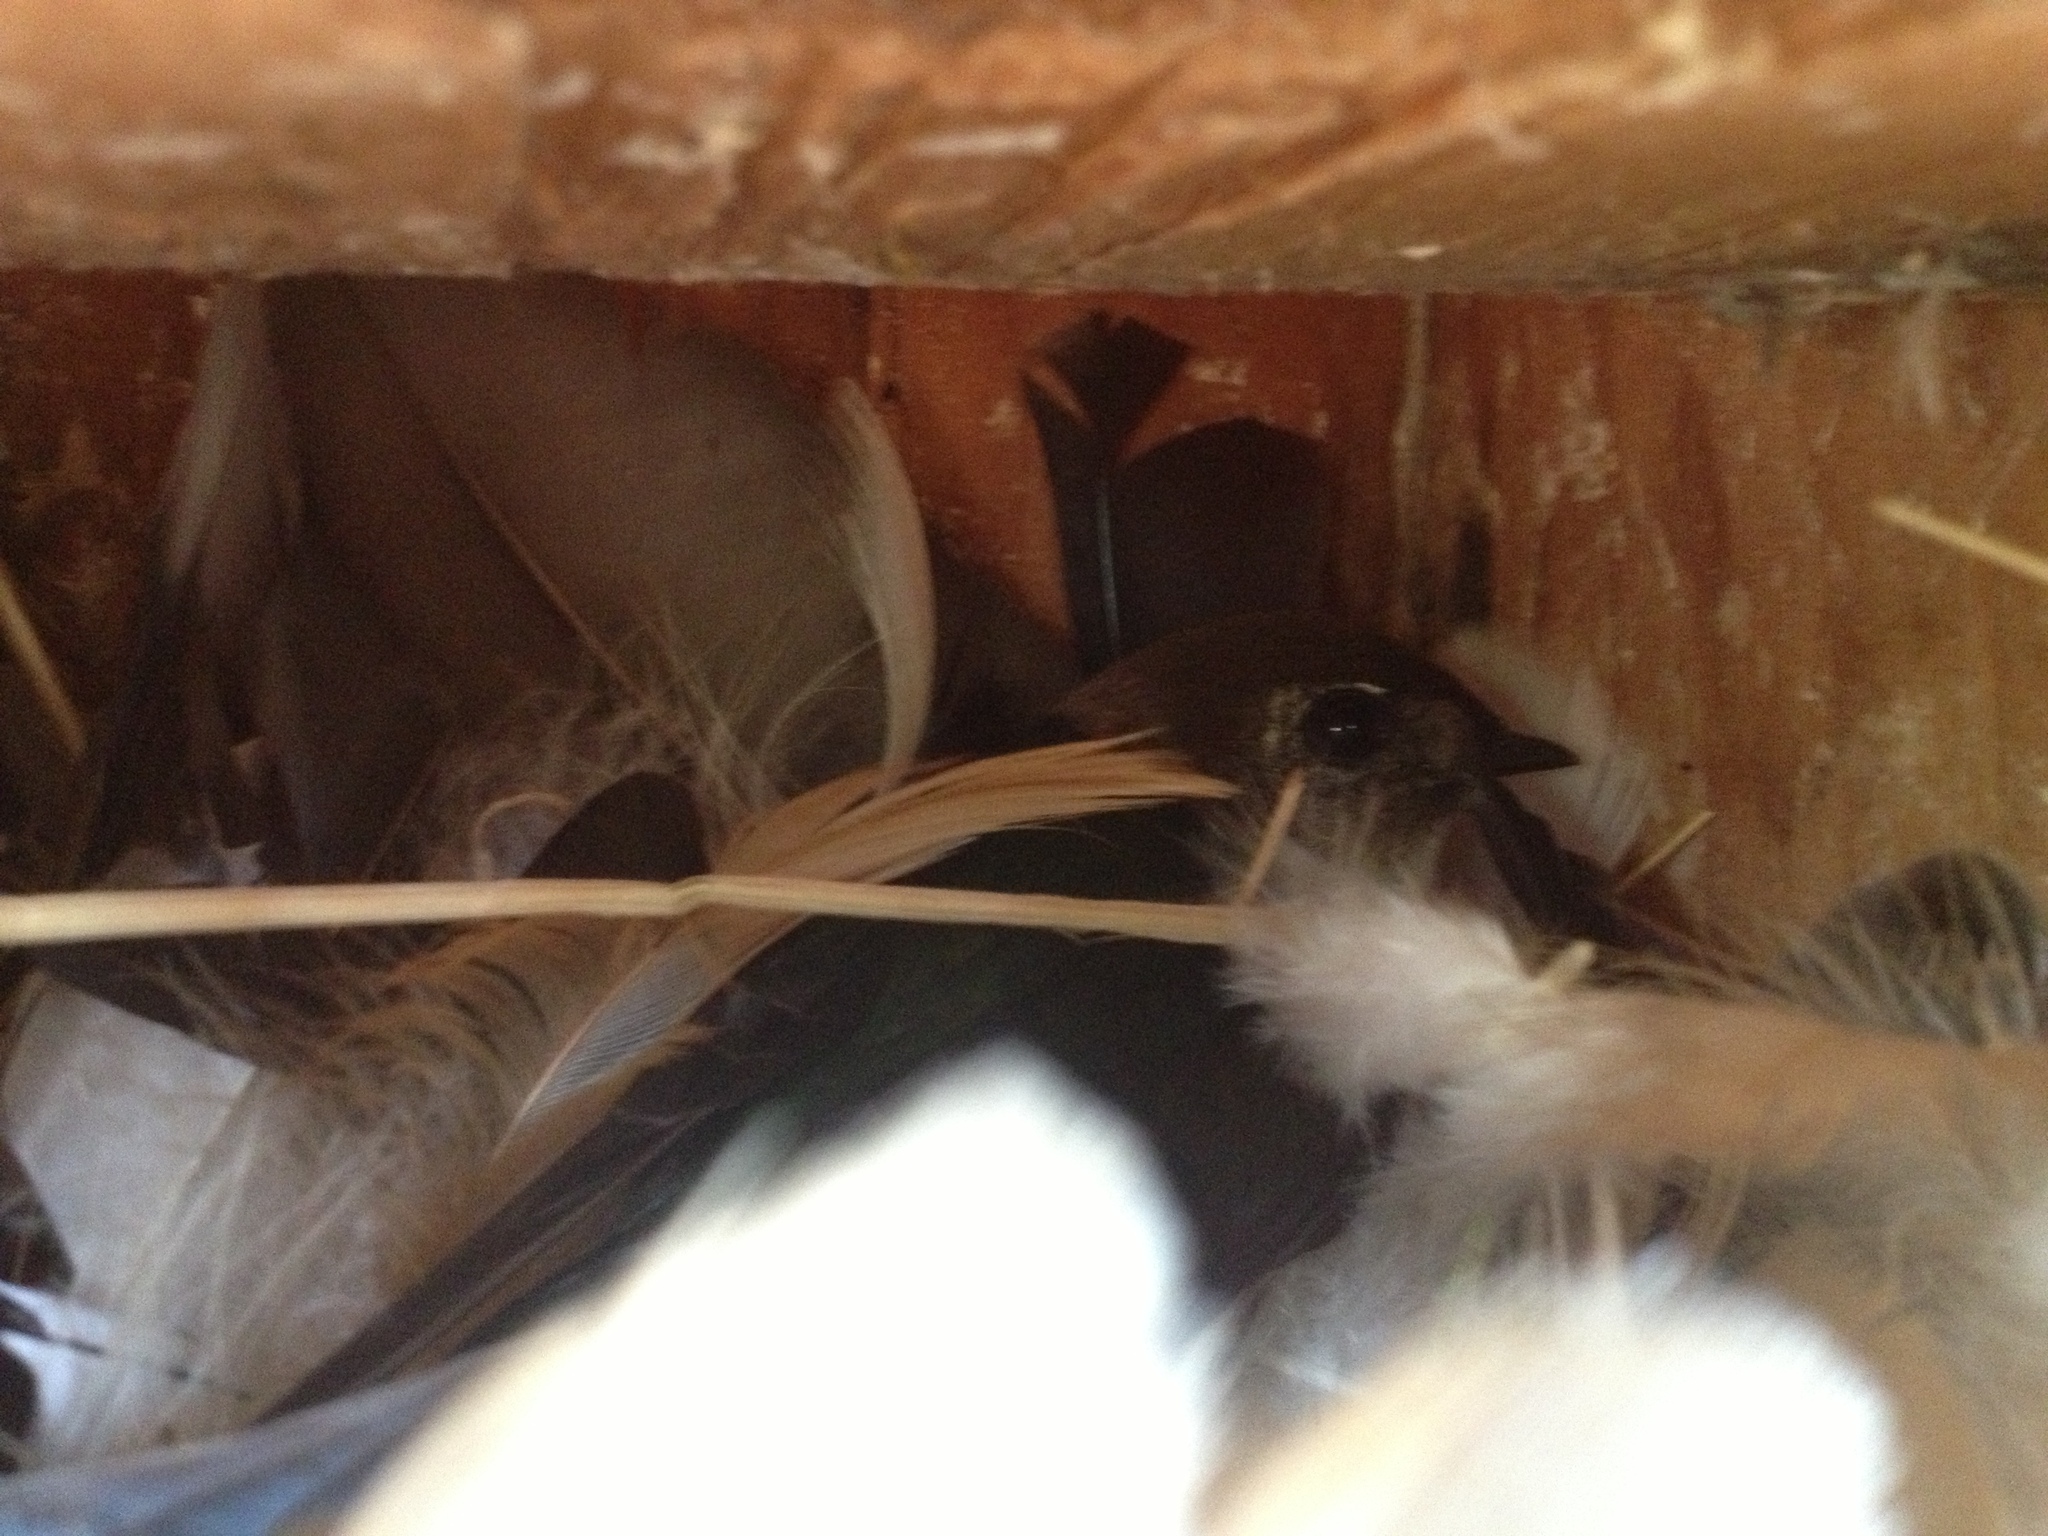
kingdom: Animalia
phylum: Chordata
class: Aves
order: Passeriformes
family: Hirundinidae
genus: Tachycineta
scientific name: Tachycineta thalassina
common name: Violet-green swallow
